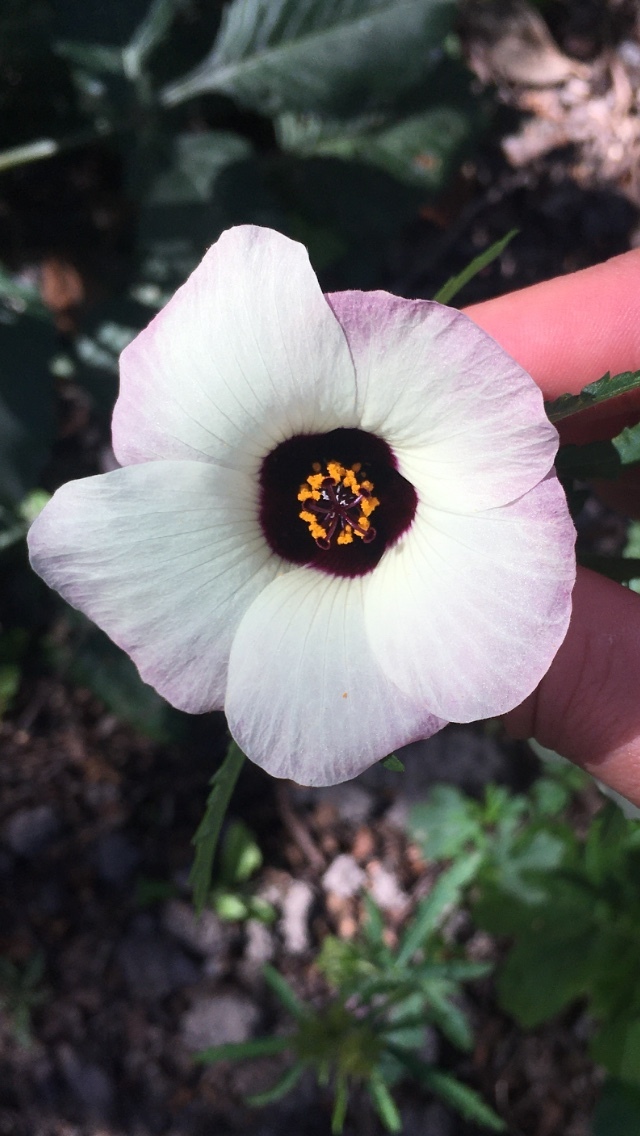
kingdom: Plantae
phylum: Tracheophyta
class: Magnoliopsida
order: Malvales
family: Malvaceae
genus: Hibiscus
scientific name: Hibiscus trionum
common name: Bladder ketmia
